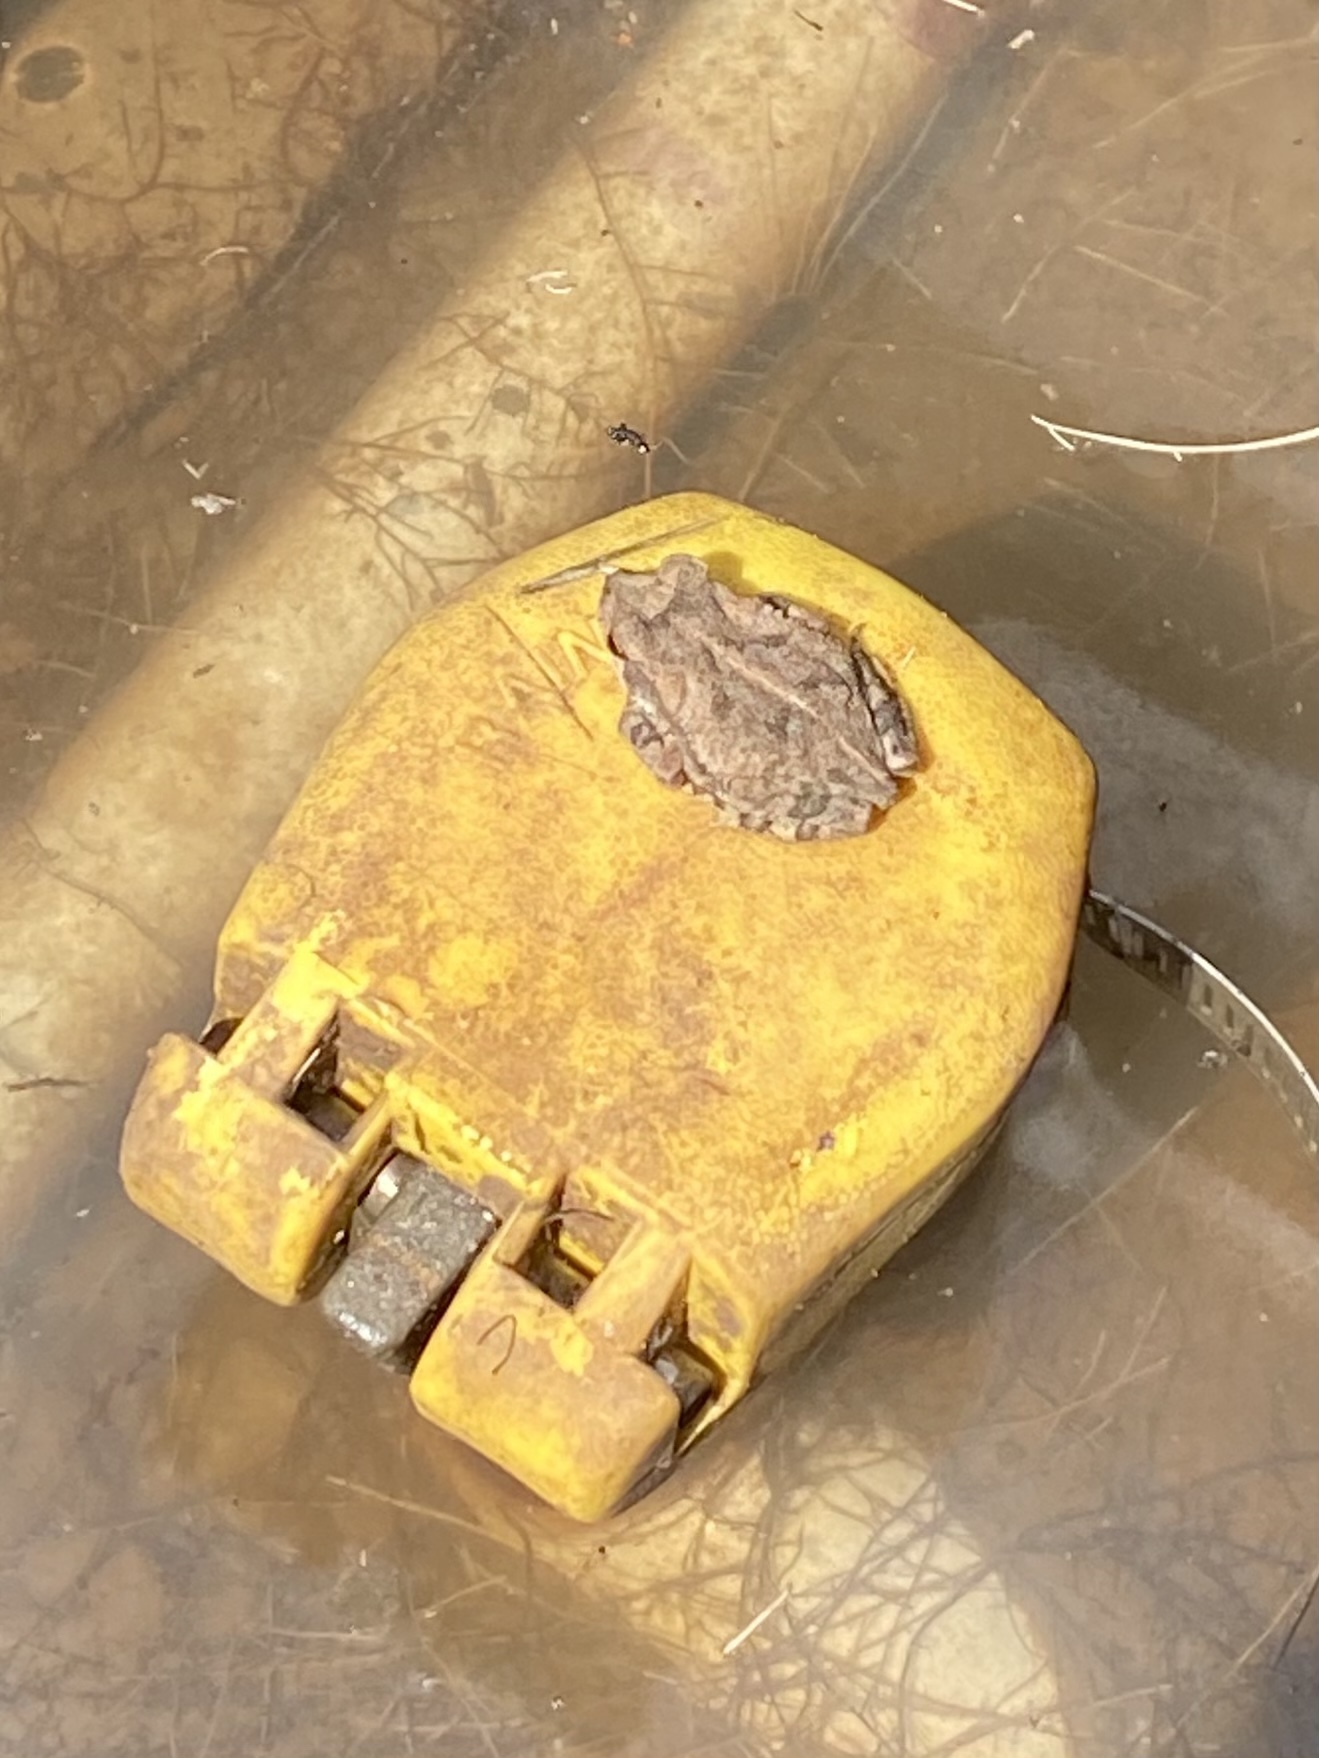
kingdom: Animalia
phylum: Chordata
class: Amphibia
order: Anura
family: Bufonidae
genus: Incilius
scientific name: Incilius nebulifer
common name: Gulf coast toad
